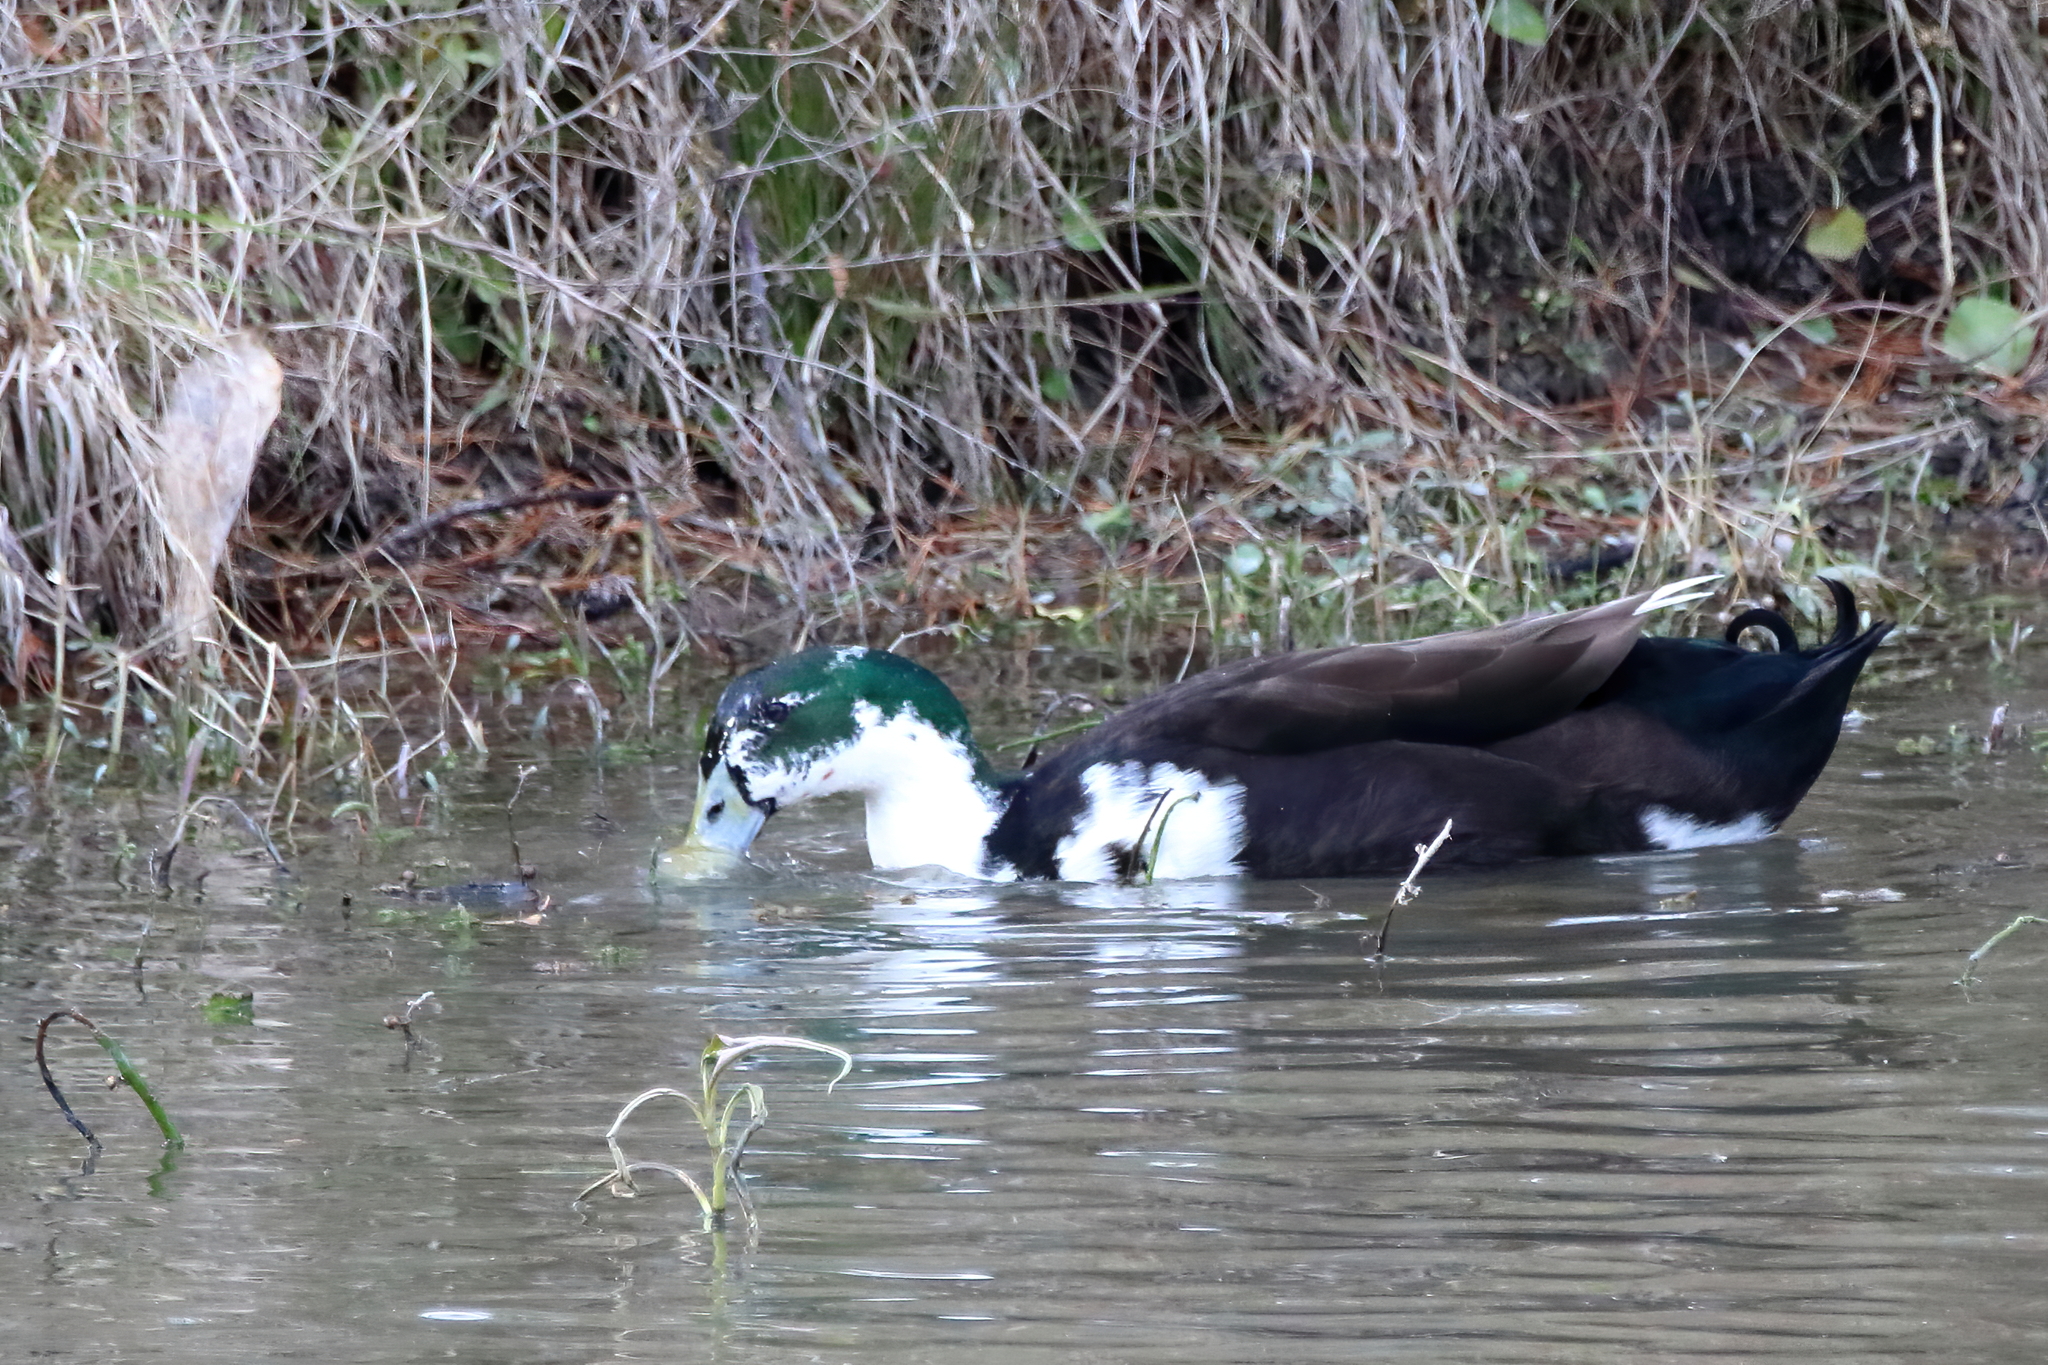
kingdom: Animalia
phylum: Chordata
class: Aves
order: Anseriformes
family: Anatidae
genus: Anas
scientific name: Anas platyrhynchos
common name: Mallard
